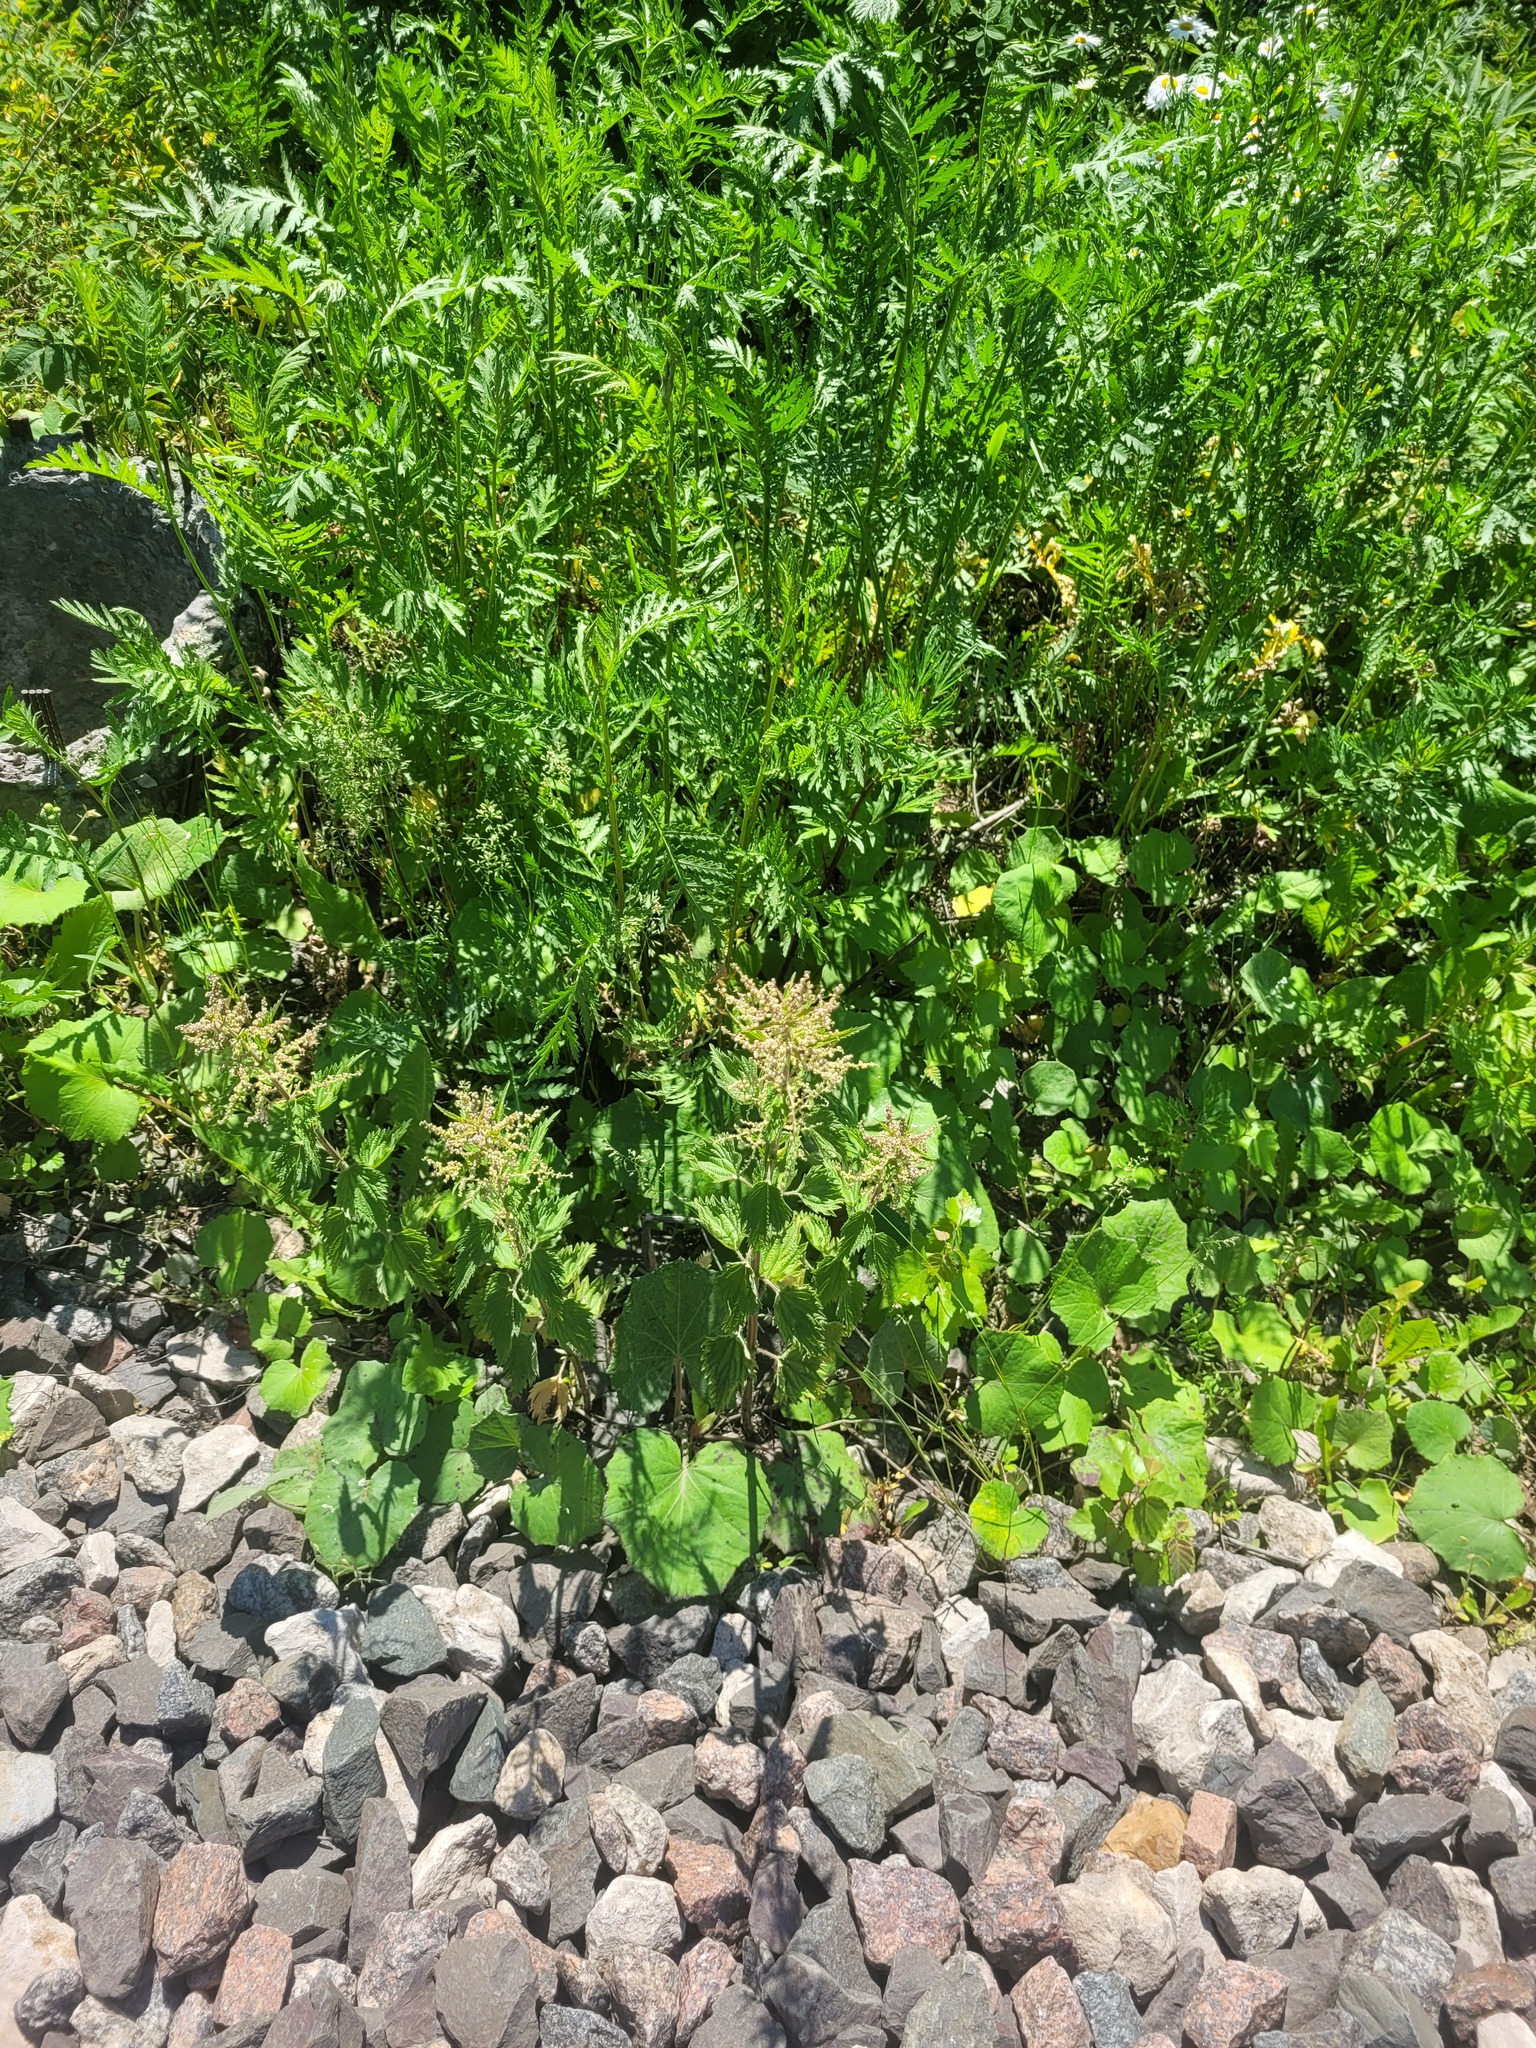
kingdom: Plantae
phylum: Tracheophyta
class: Magnoliopsida
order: Rosales
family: Urticaceae
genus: Urtica
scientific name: Urtica dioica
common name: Common nettle
